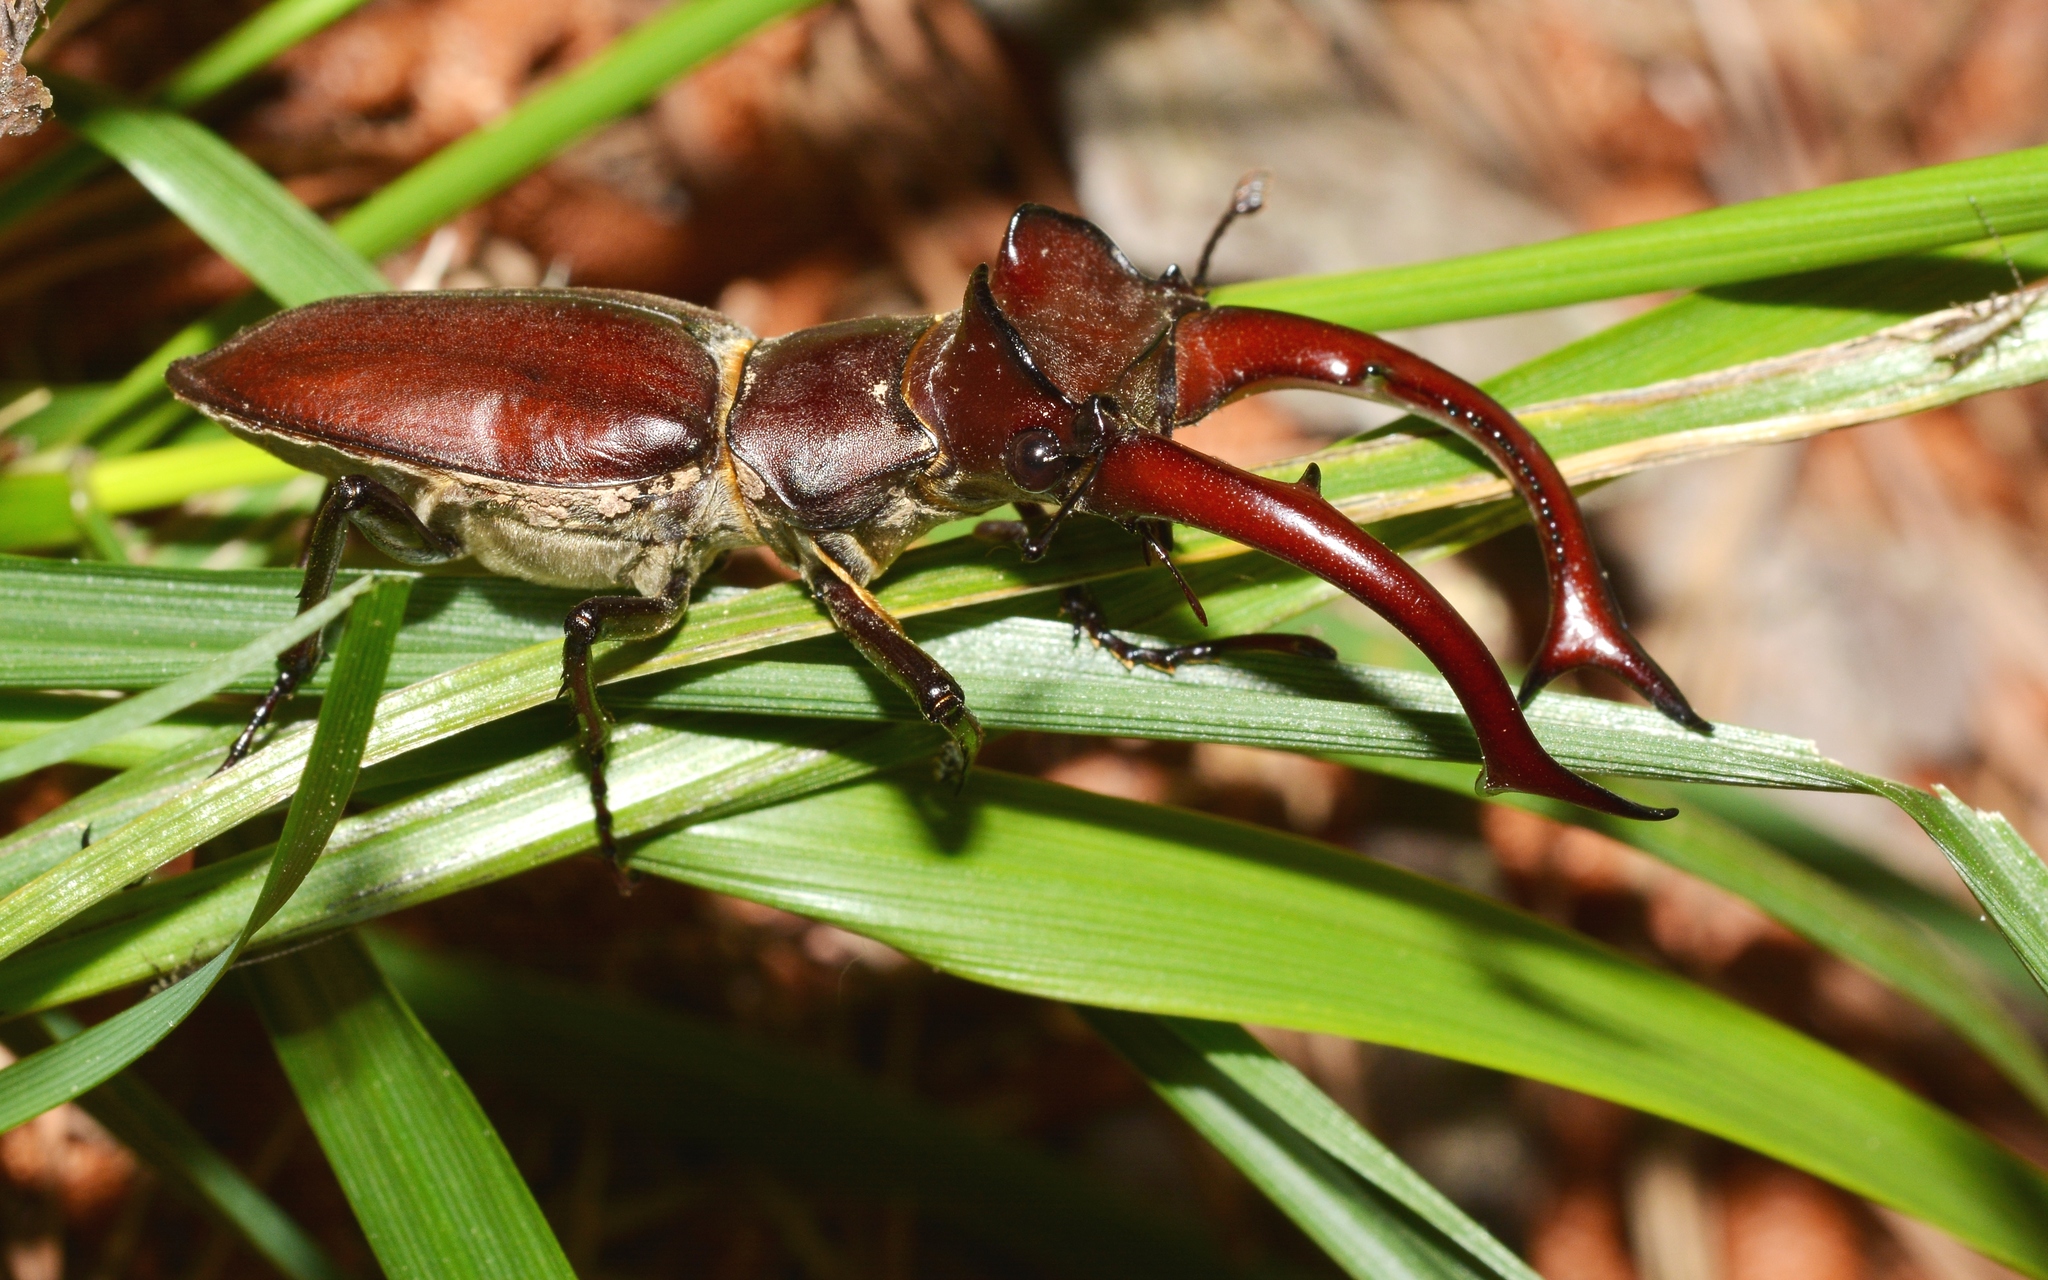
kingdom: Animalia
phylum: Arthropoda
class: Insecta
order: Coleoptera
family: Lucanidae
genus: Lucanus
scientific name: Lucanus elaphus
